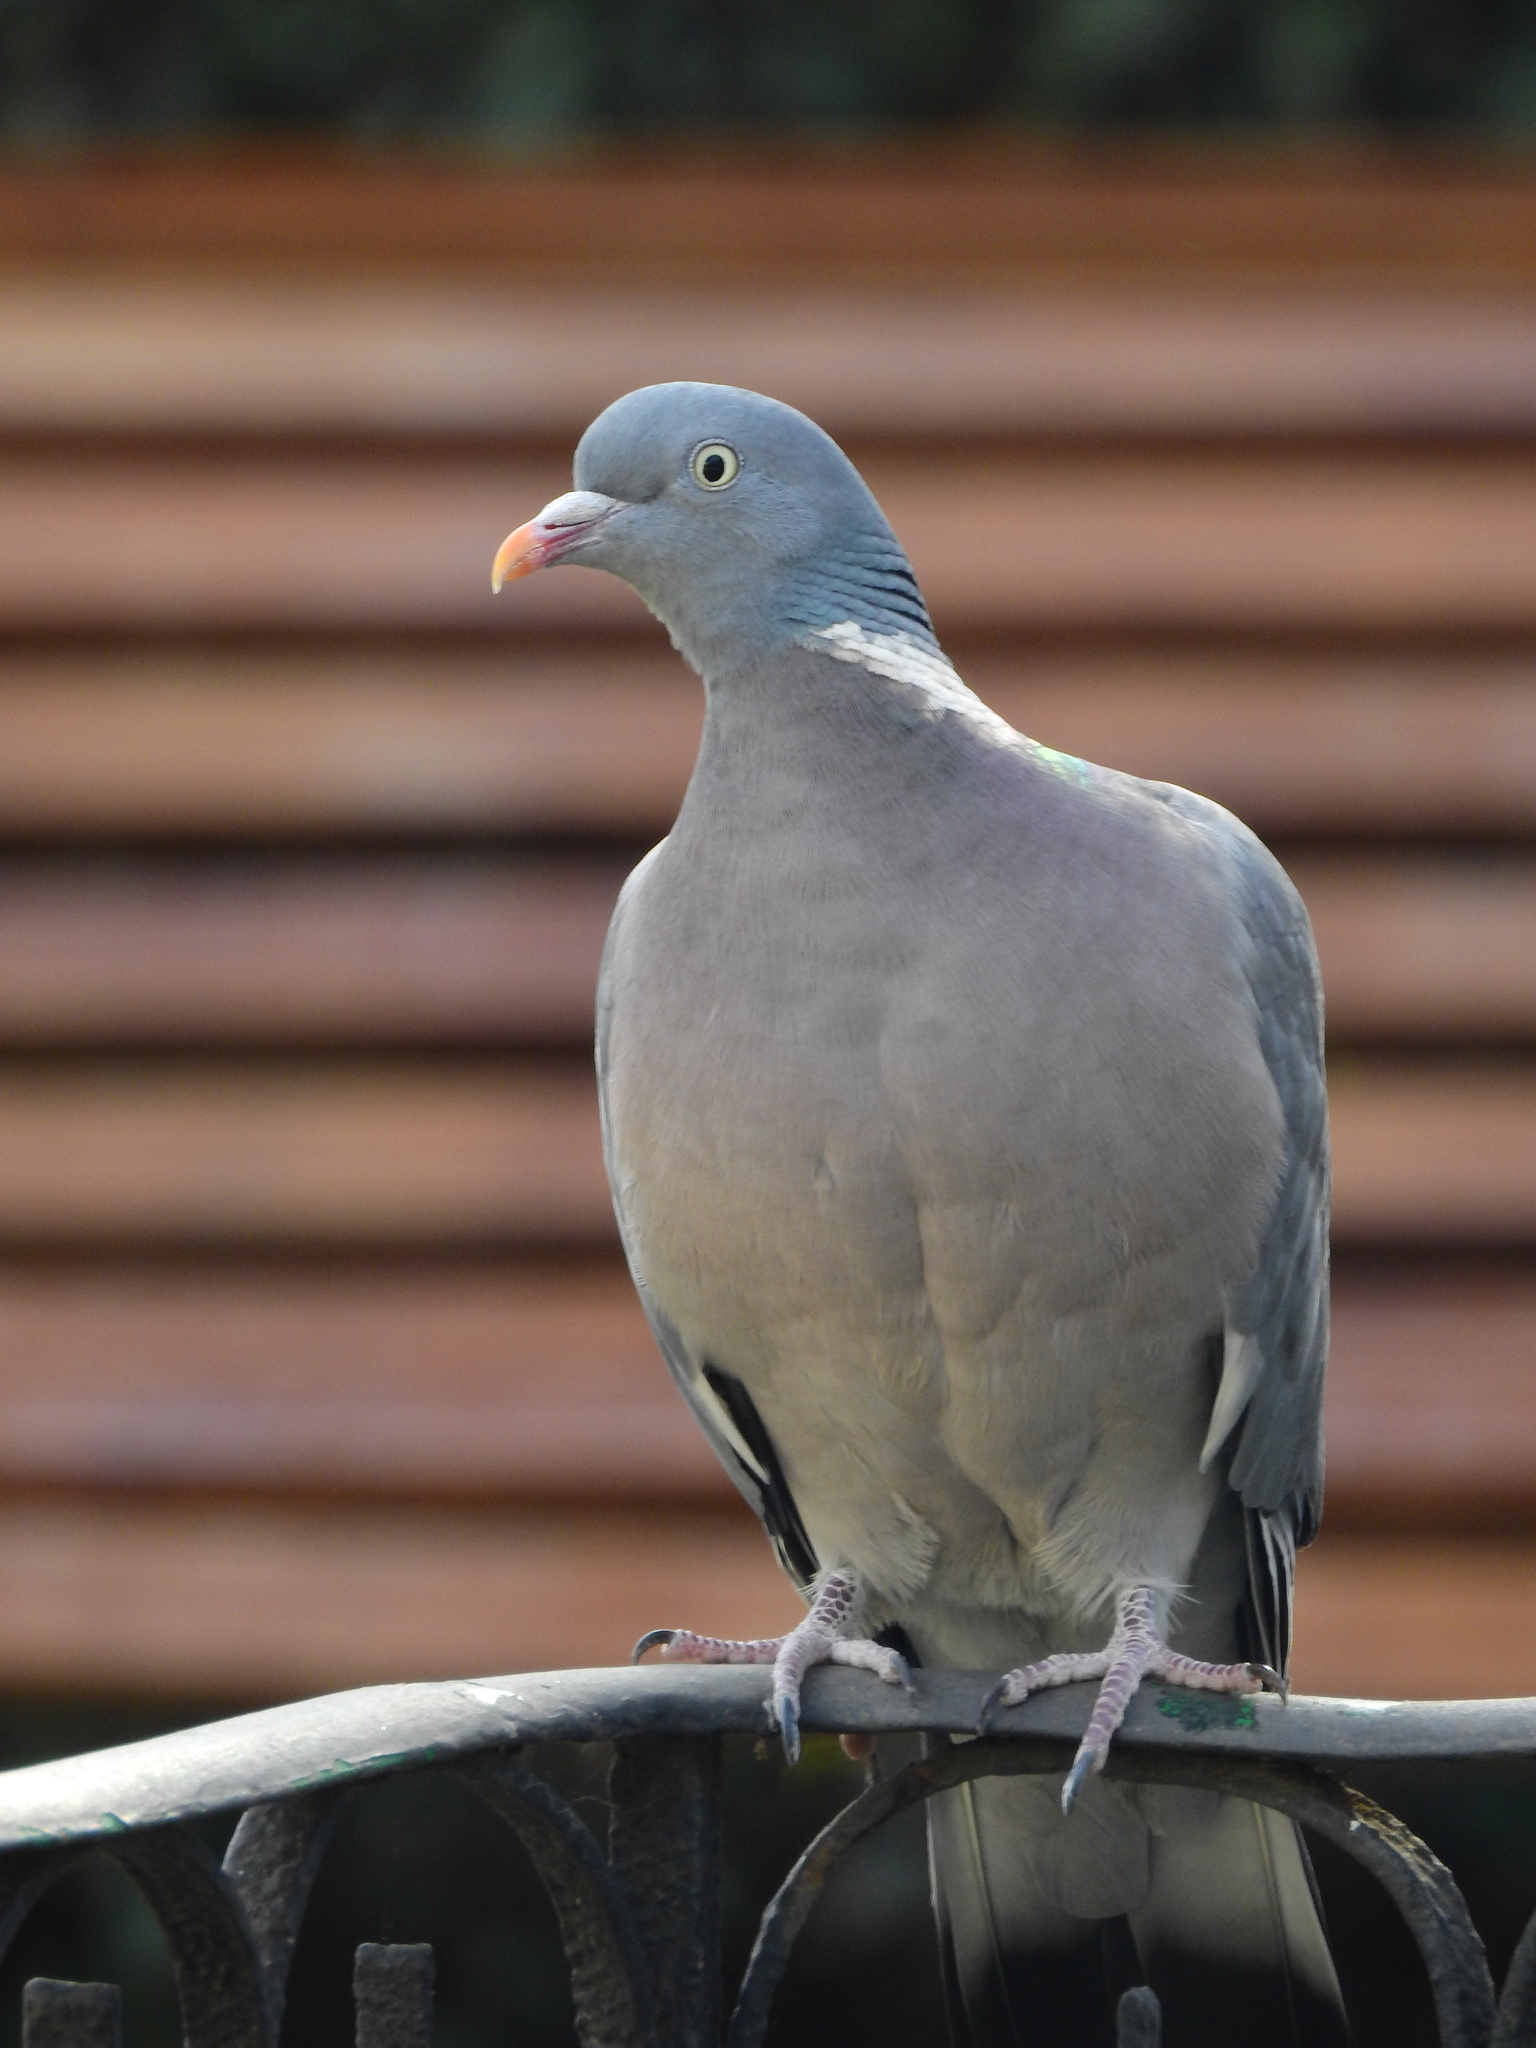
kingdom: Animalia
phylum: Chordata
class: Aves
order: Columbiformes
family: Columbidae
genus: Columba
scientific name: Columba palumbus
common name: Common wood pigeon
